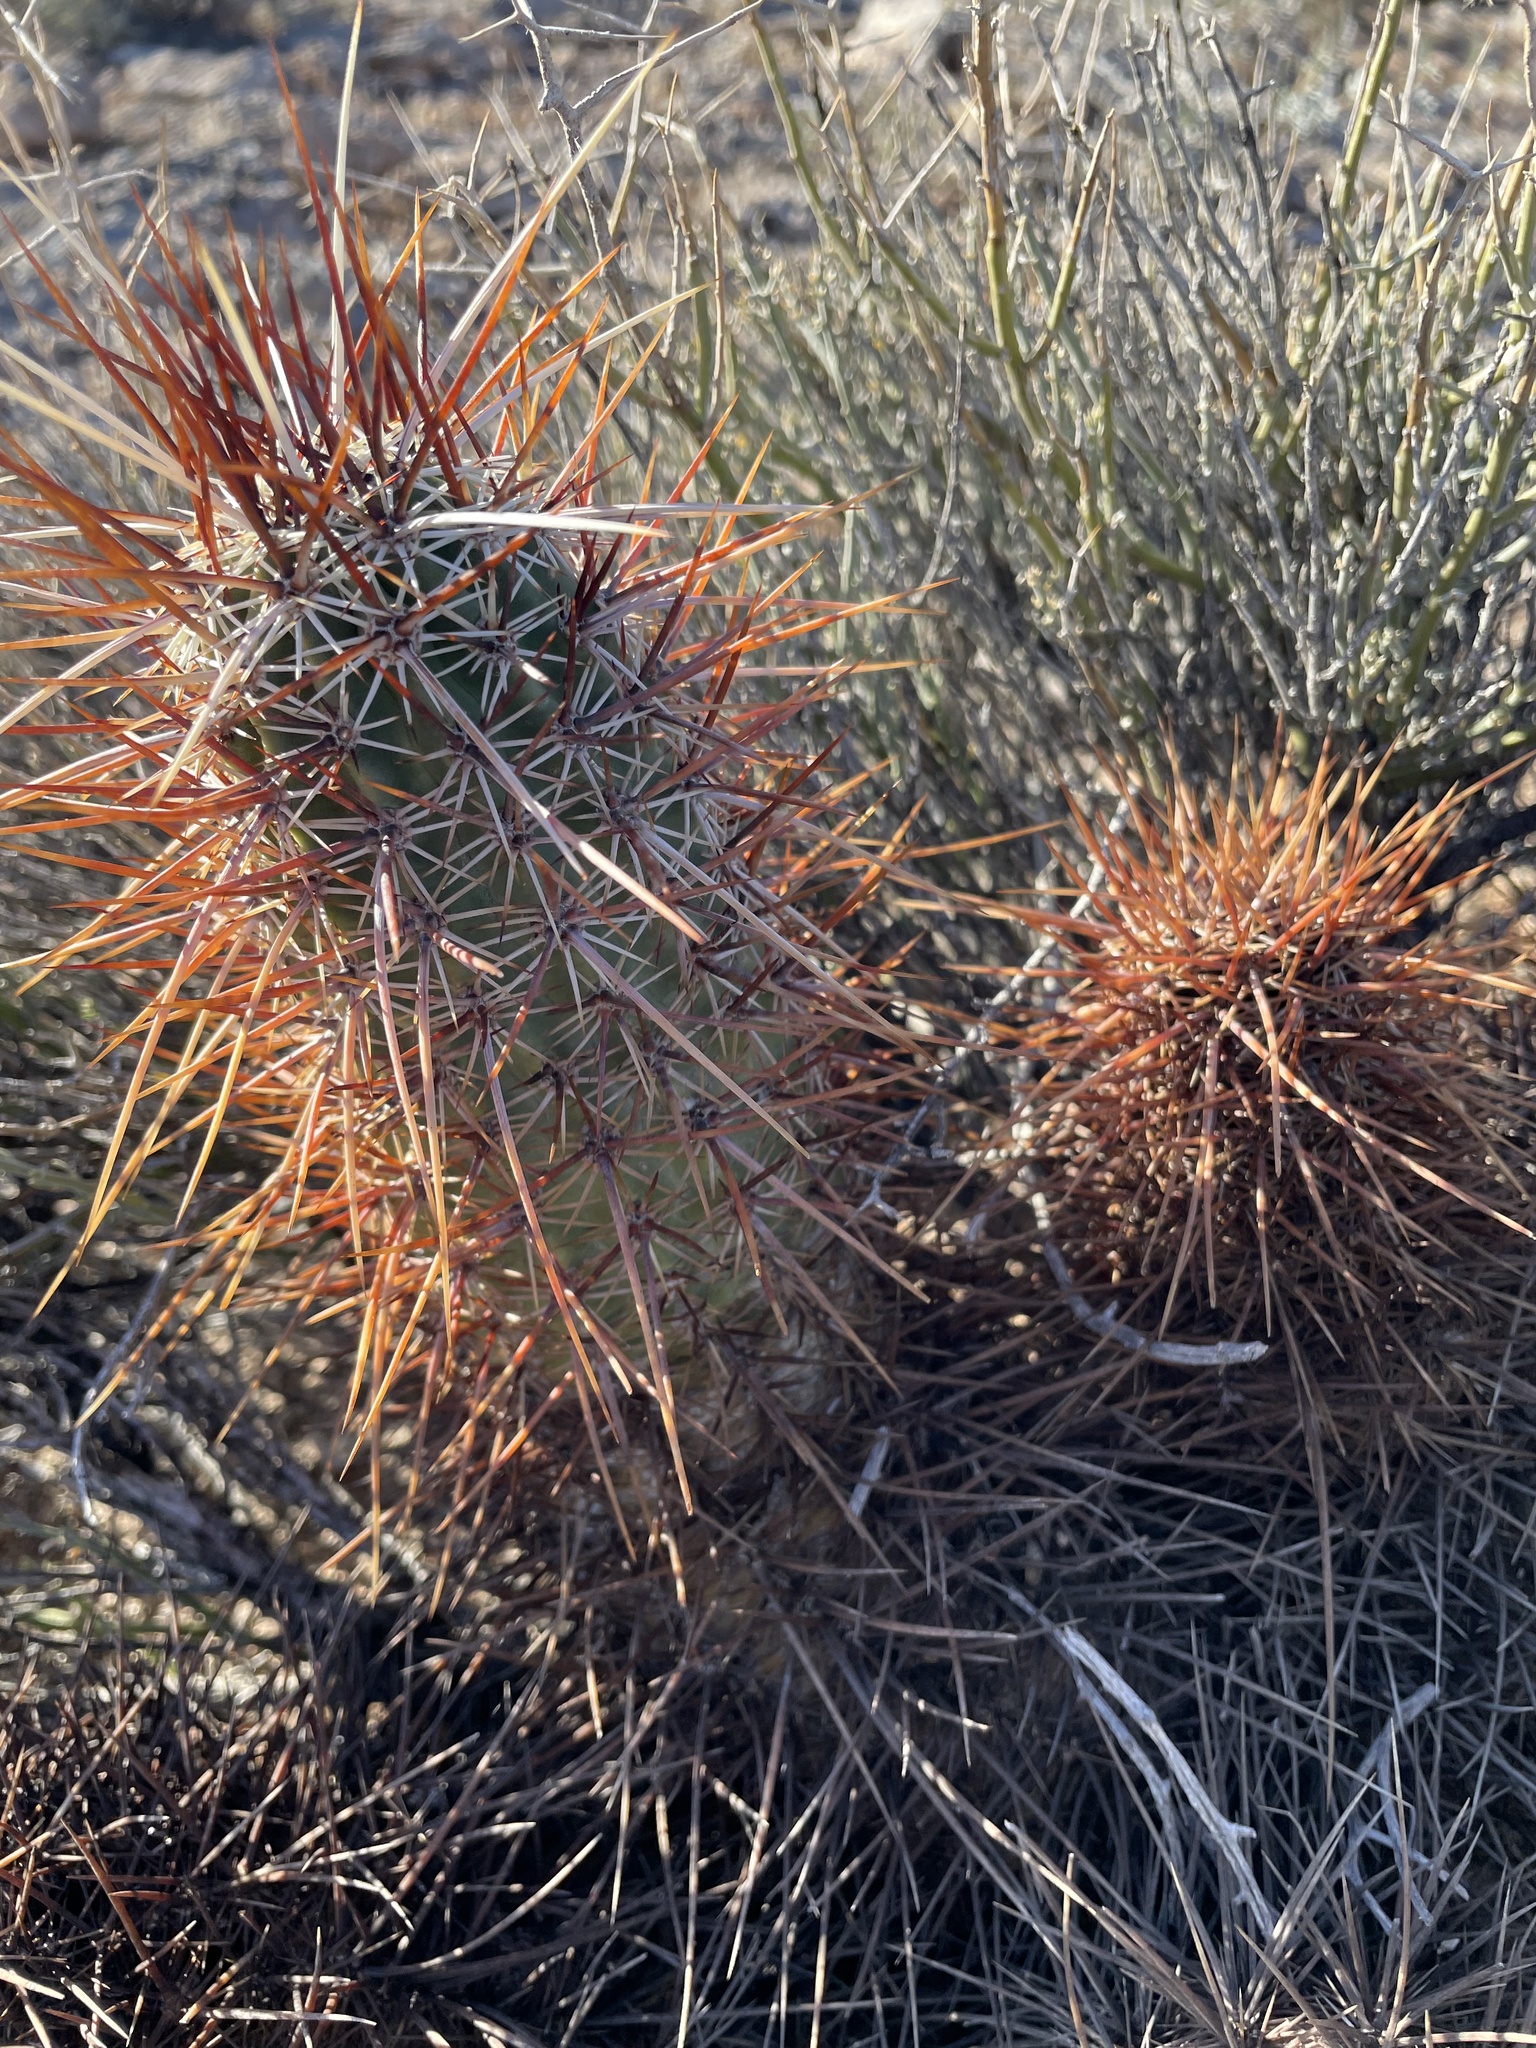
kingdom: Plantae
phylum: Tracheophyta
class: Magnoliopsida
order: Caryophyllales
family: Cactaceae
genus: Echinocereus
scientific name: Echinocereus engelmannii
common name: Engelmann's hedgehog cactus
